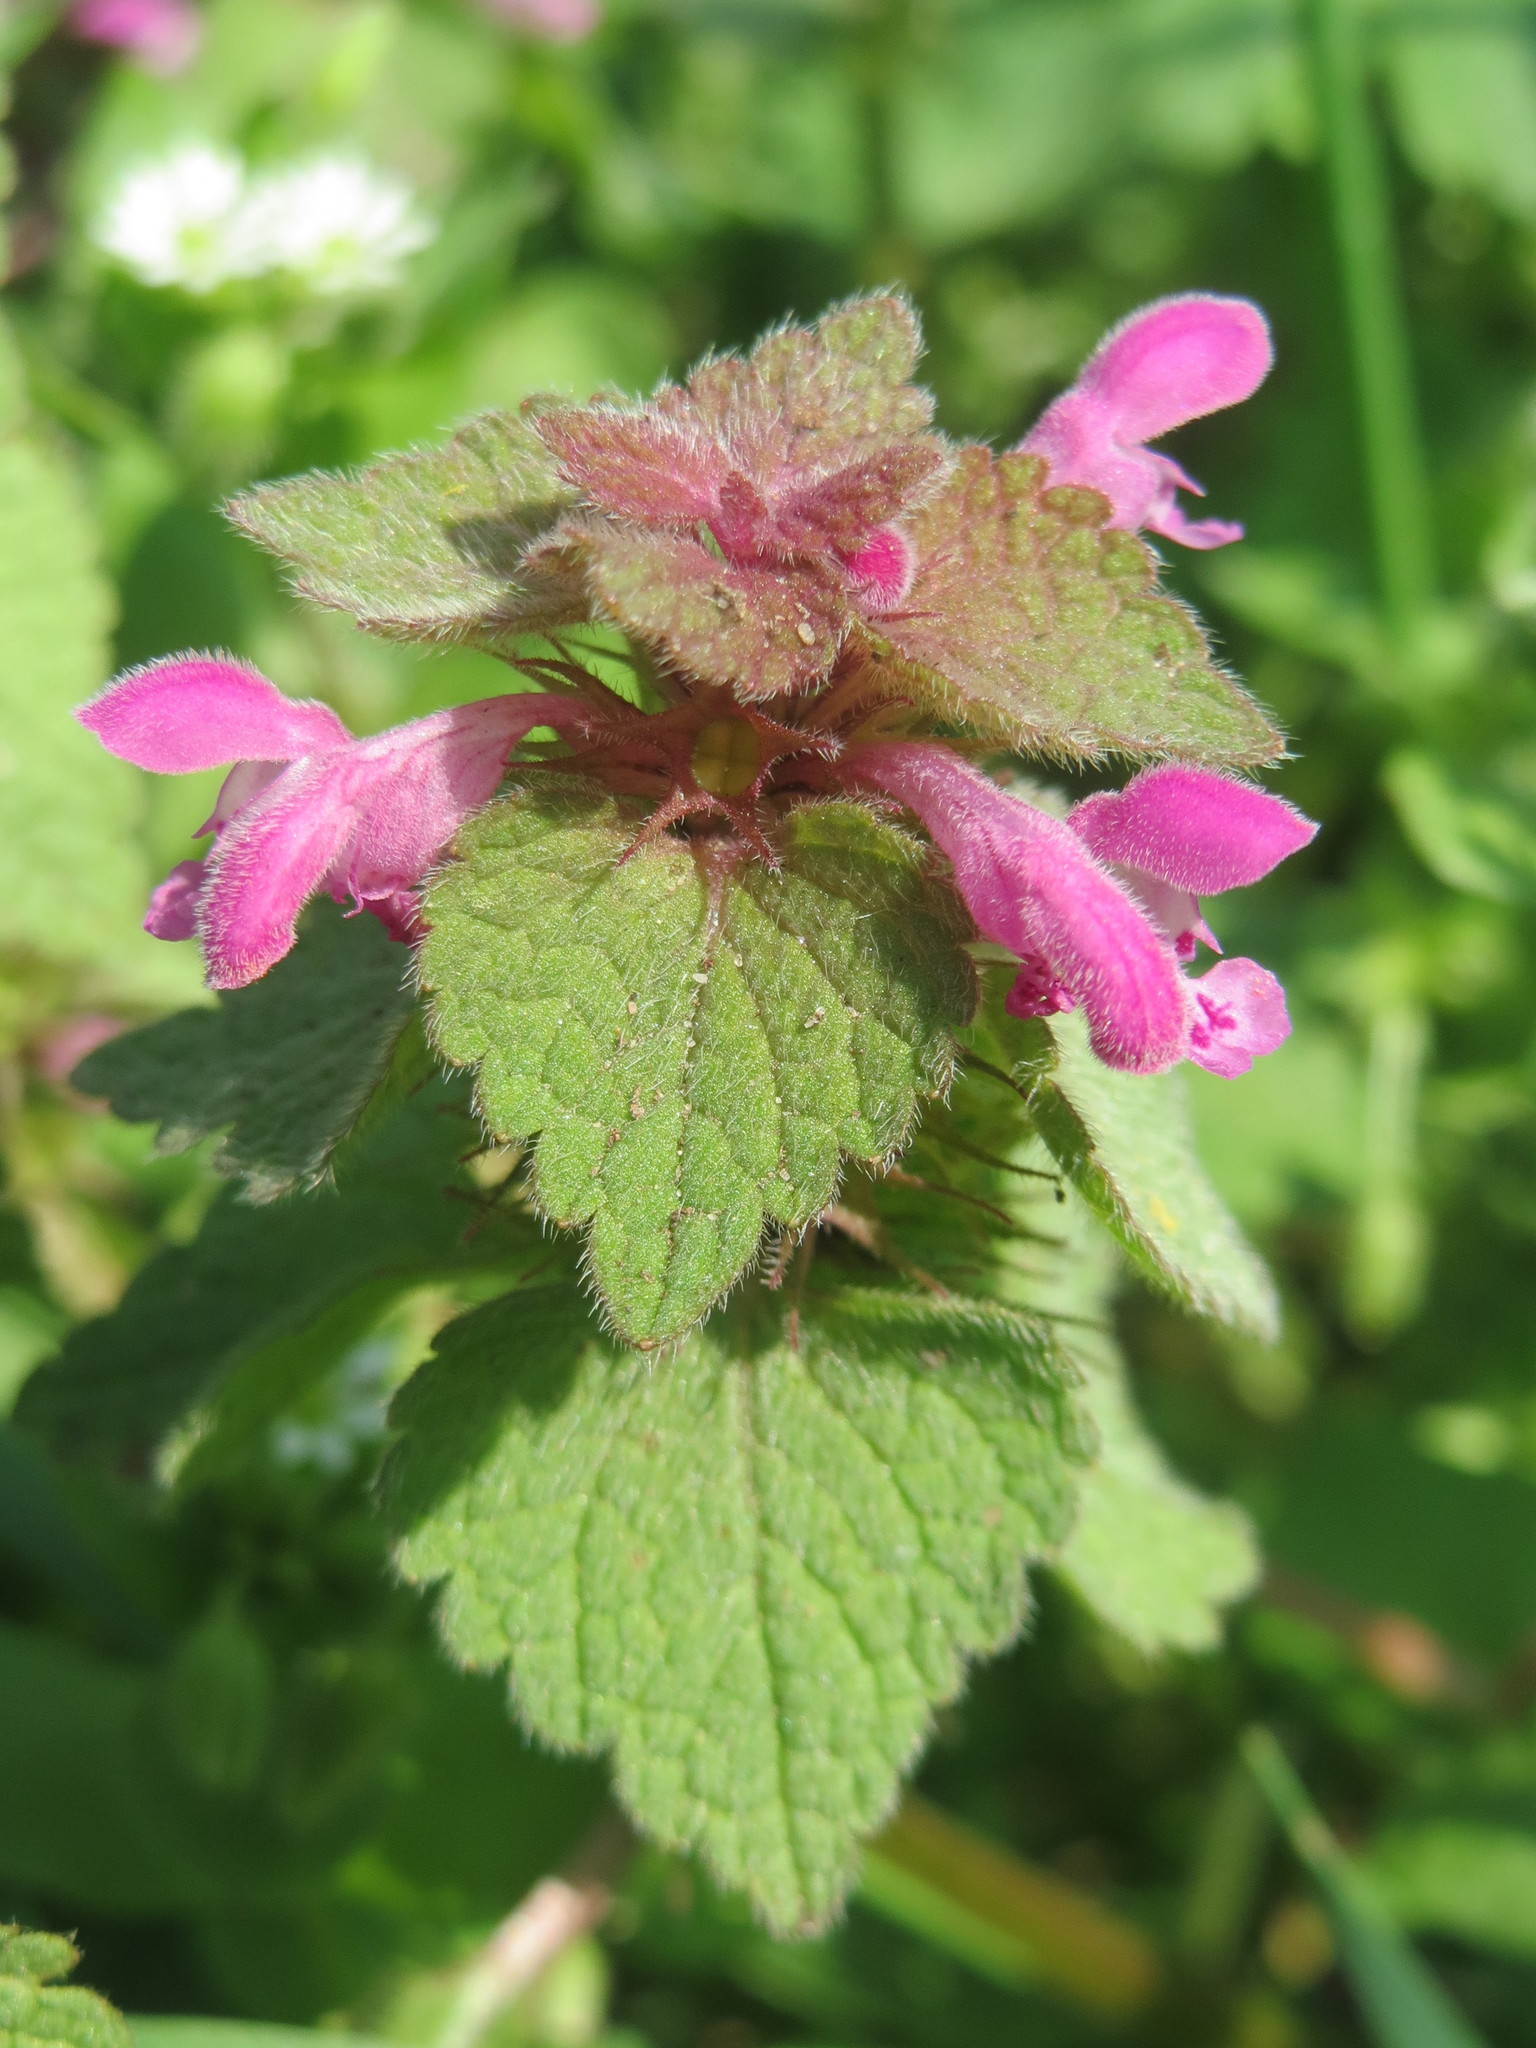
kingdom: Plantae
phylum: Tracheophyta
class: Magnoliopsida
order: Lamiales
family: Lamiaceae
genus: Lamium
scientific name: Lamium purpureum
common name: Red dead-nettle
